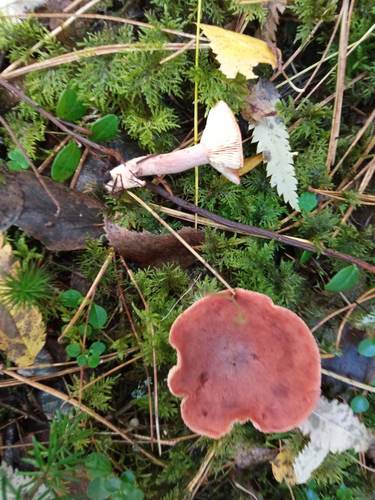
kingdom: Fungi
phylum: Basidiomycota
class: Agaricomycetes
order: Russulales
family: Russulaceae
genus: Lactarius
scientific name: Lactarius rufus
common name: Rufous milk-cap
